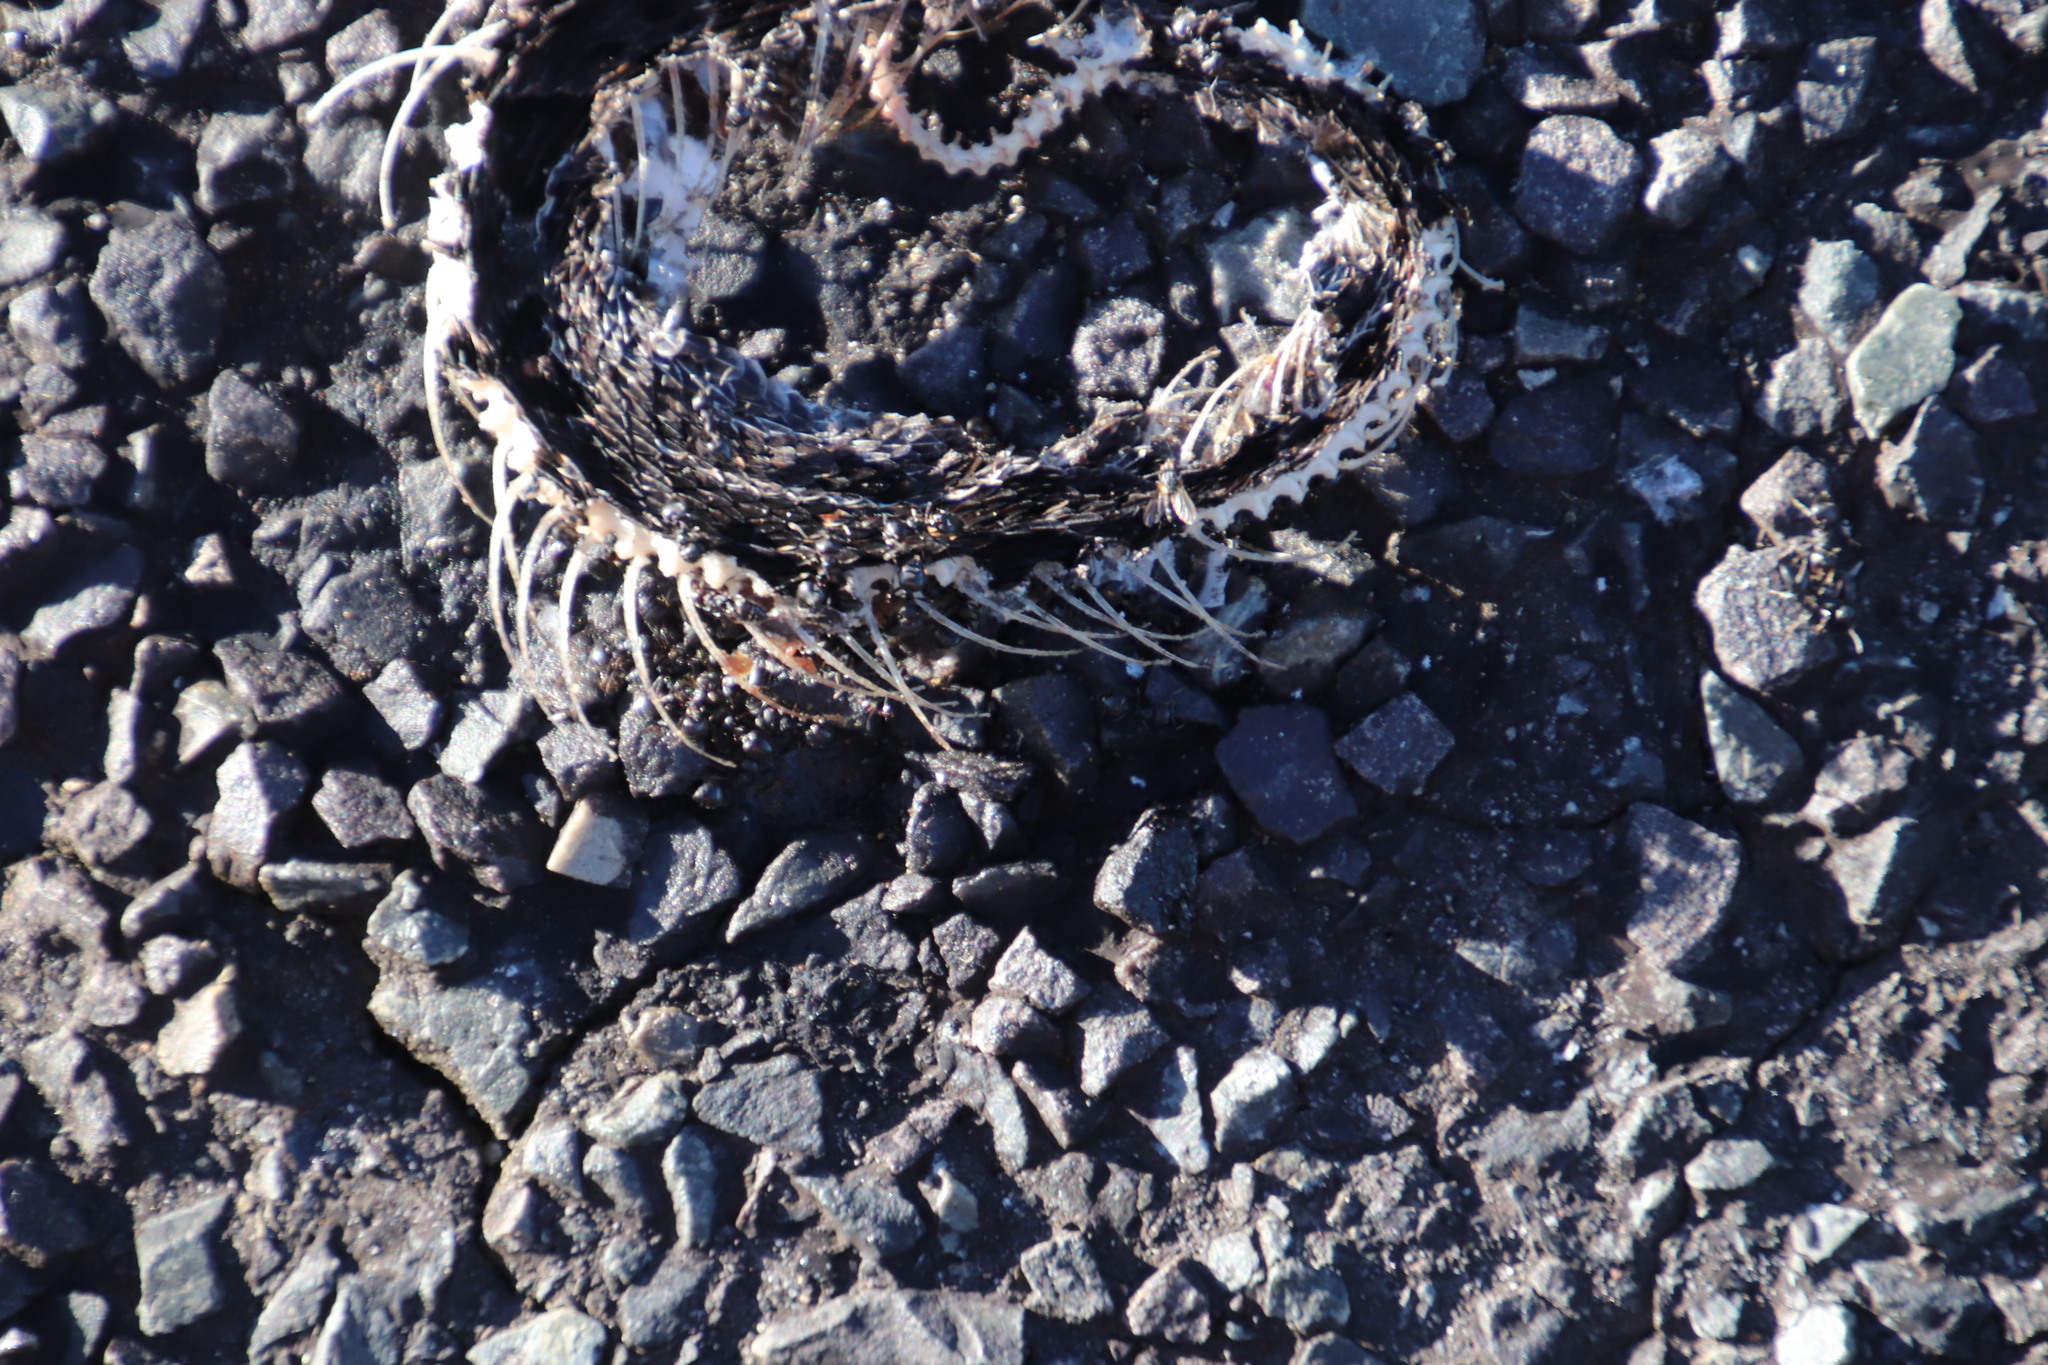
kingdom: Animalia
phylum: Chordata
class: Squamata
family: Viperidae
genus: Bitis
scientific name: Bitis atropos
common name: Mountain adder
